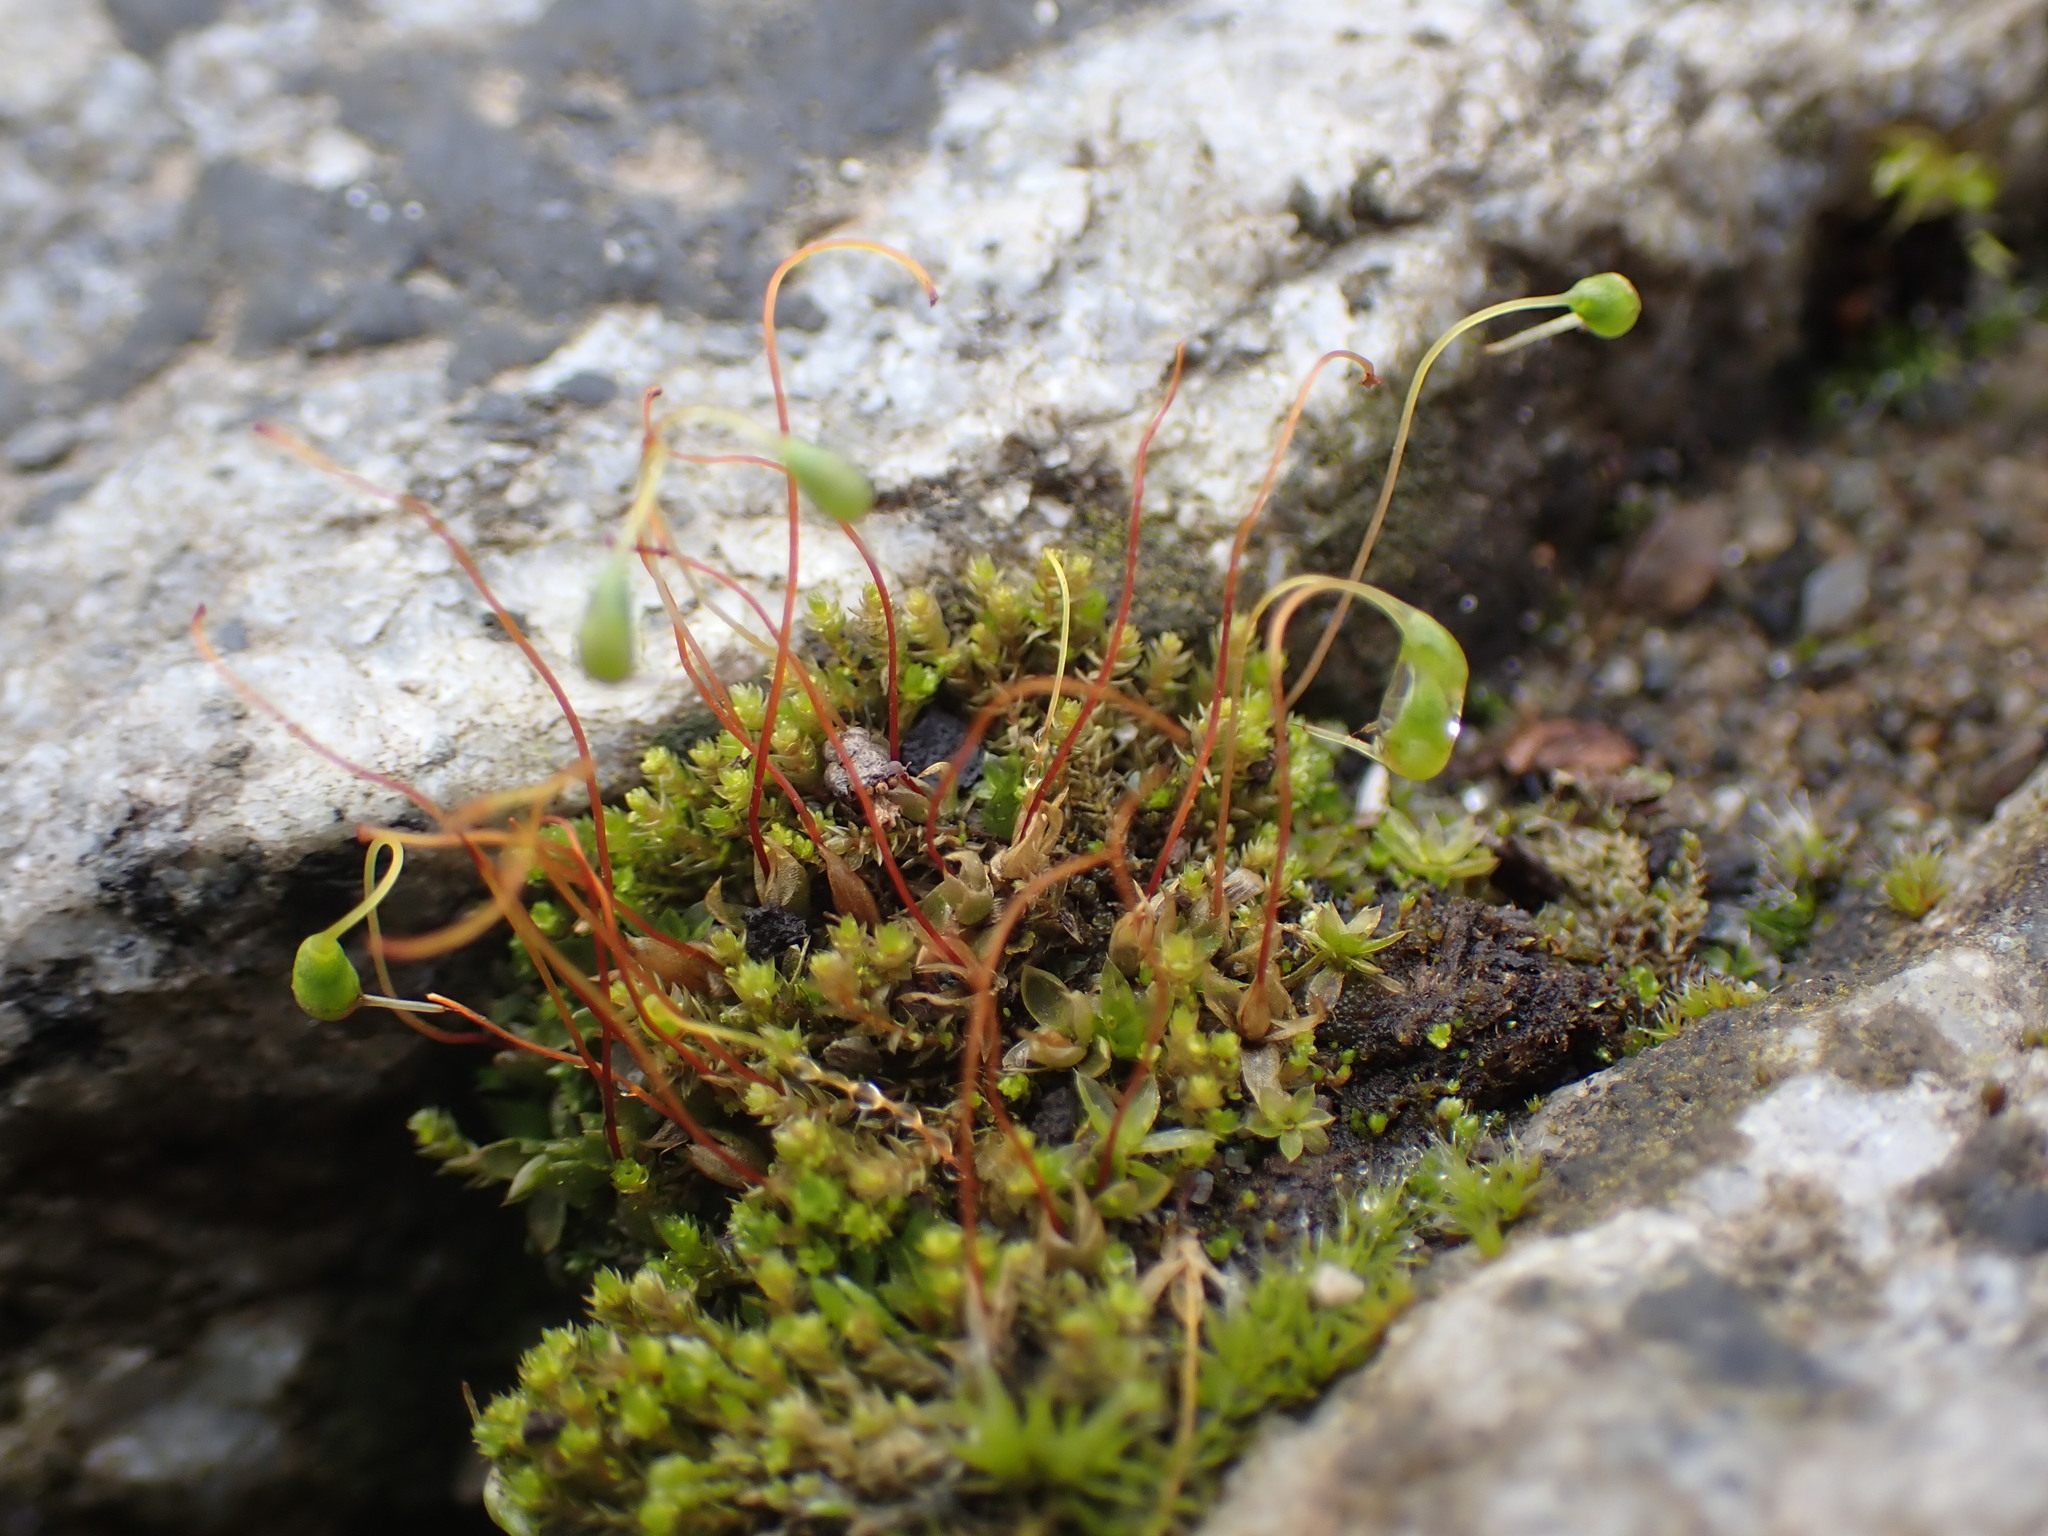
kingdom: Plantae
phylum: Bryophyta
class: Bryopsida
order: Funariales
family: Funariaceae
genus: Funaria
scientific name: Funaria hygrometrica
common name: Common cord moss
